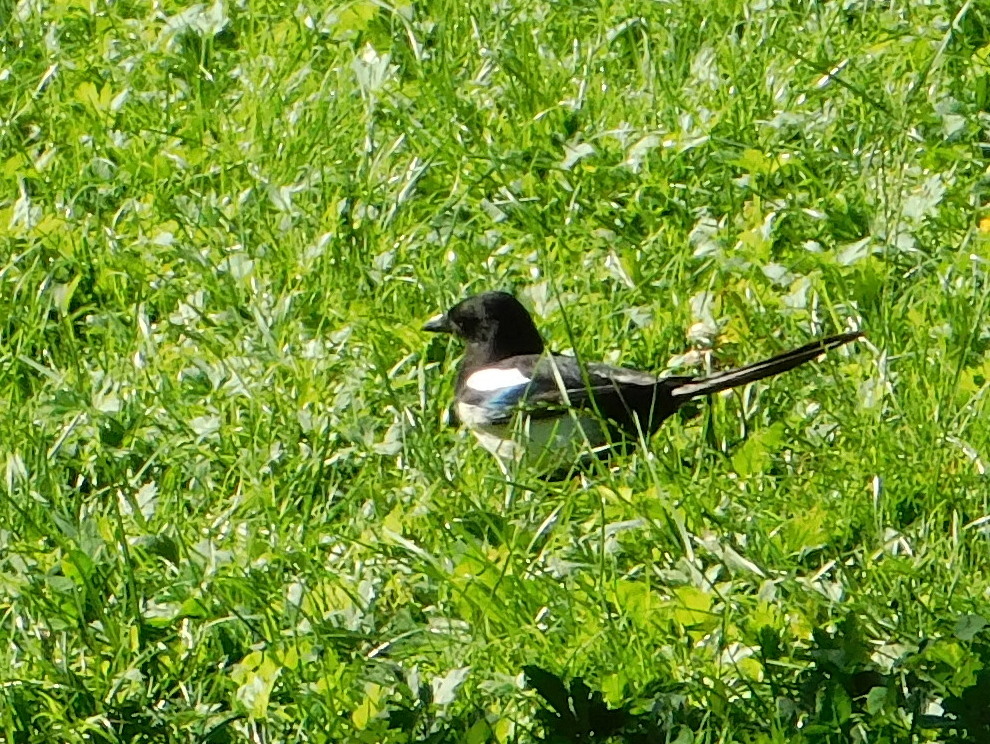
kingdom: Animalia
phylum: Chordata
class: Aves
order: Passeriformes
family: Corvidae
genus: Pica
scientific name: Pica pica
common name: Eurasian magpie
